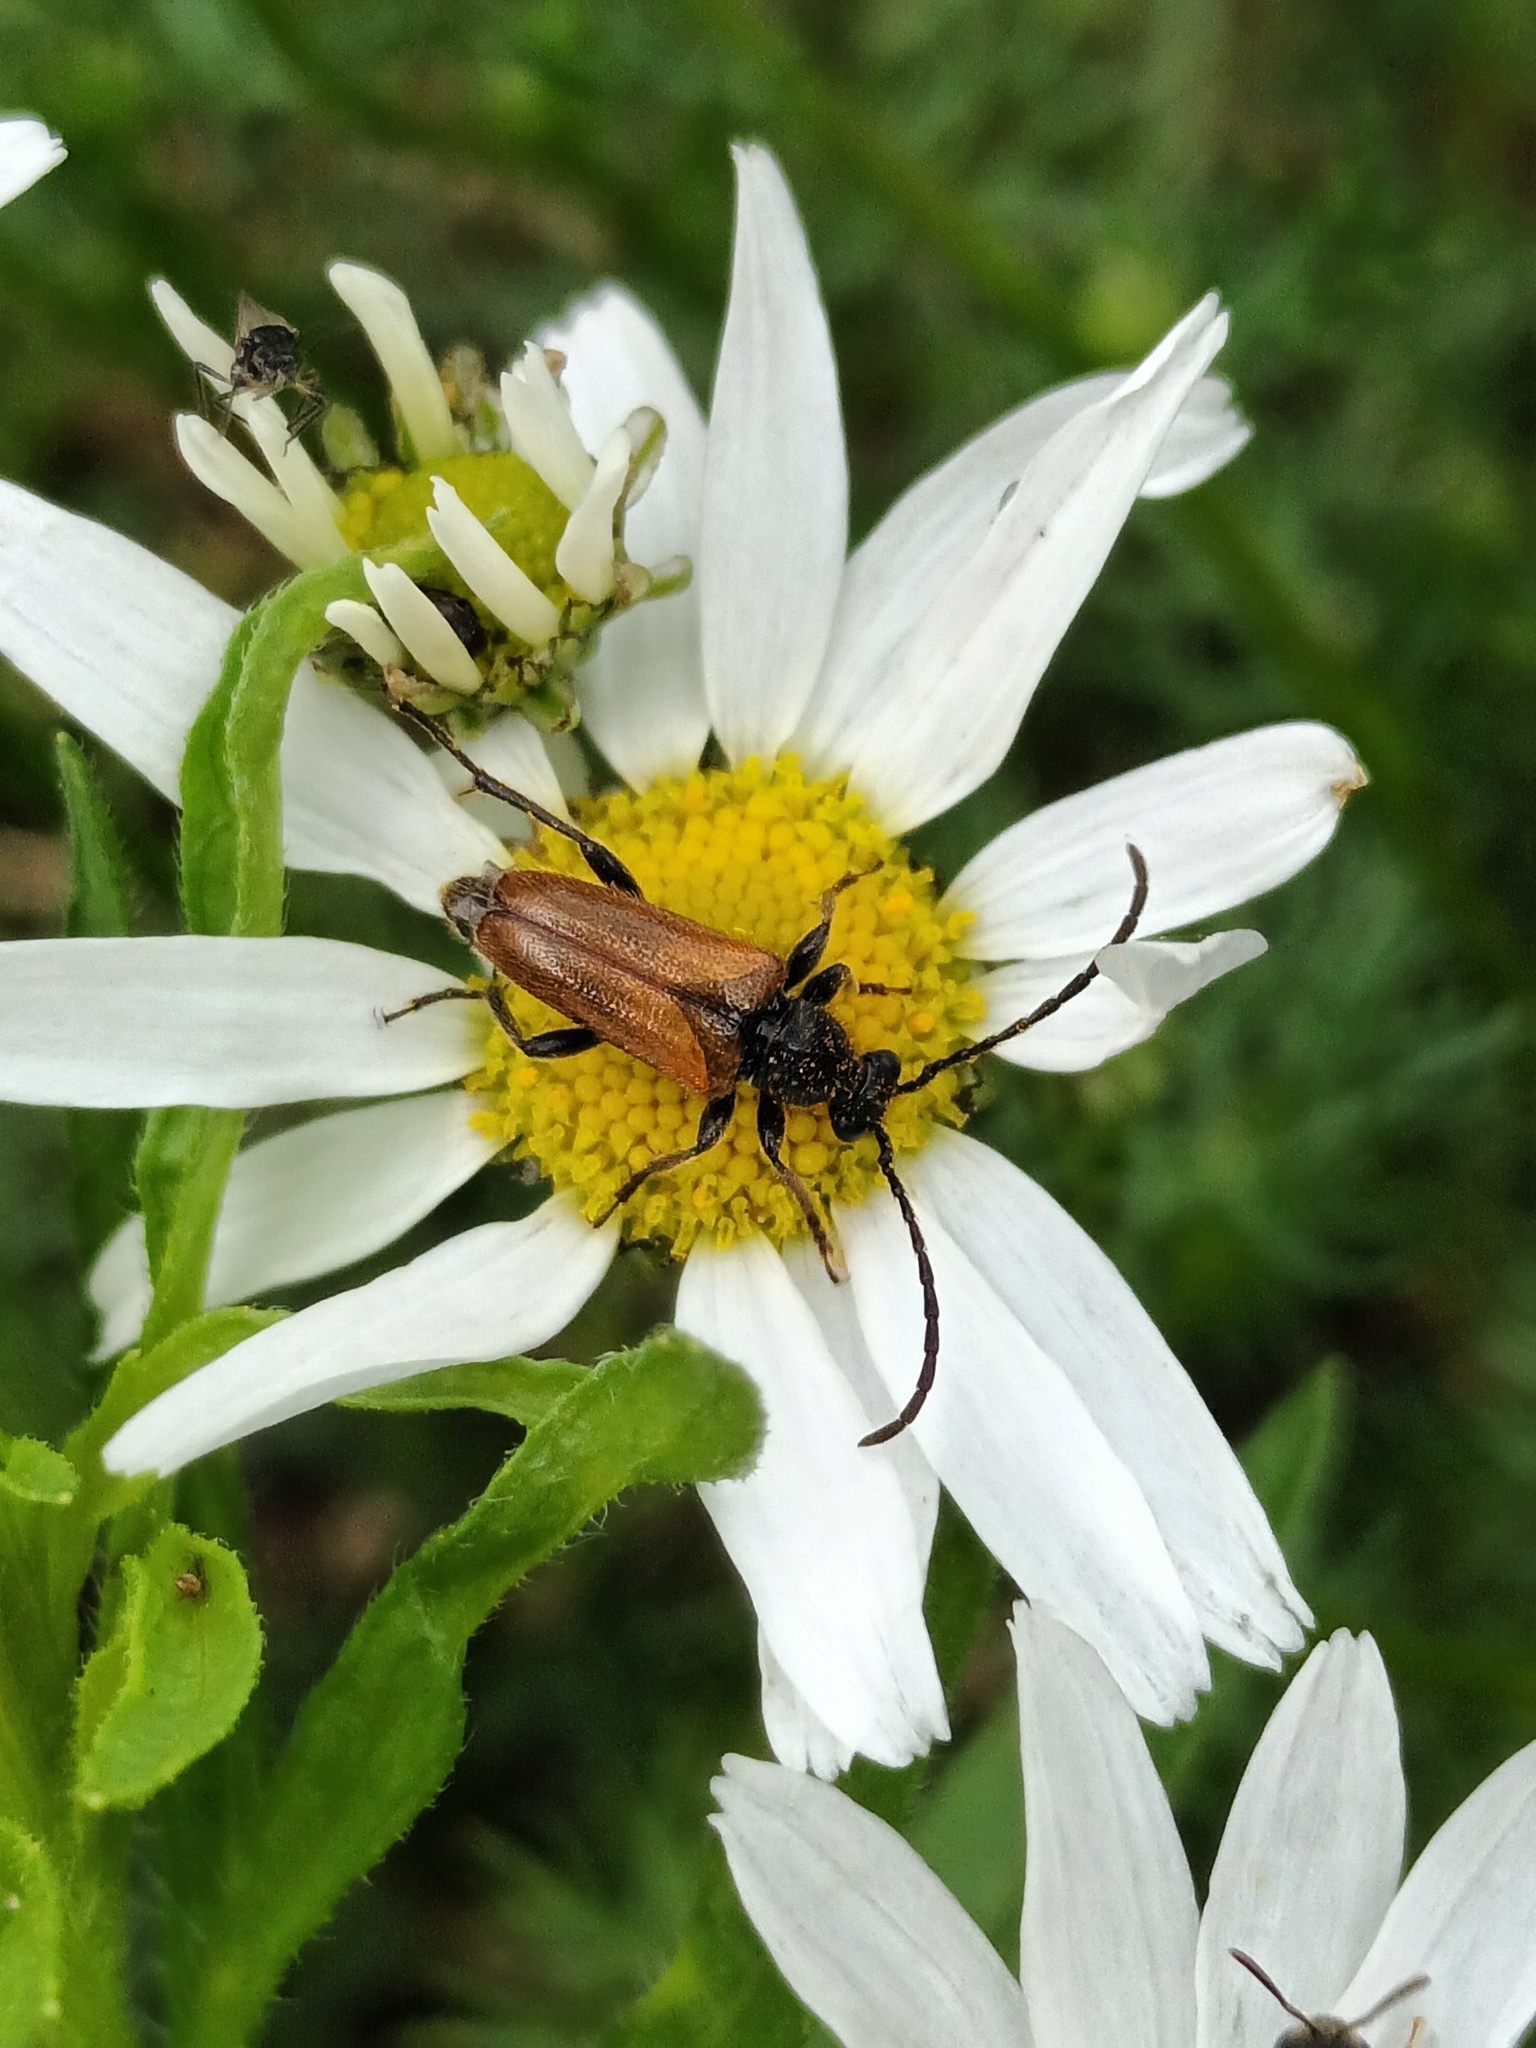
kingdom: Animalia
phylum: Arthropoda
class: Insecta
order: Coleoptera
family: Cerambycidae
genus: Pseudovadonia
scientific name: Pseudovadonia livida
